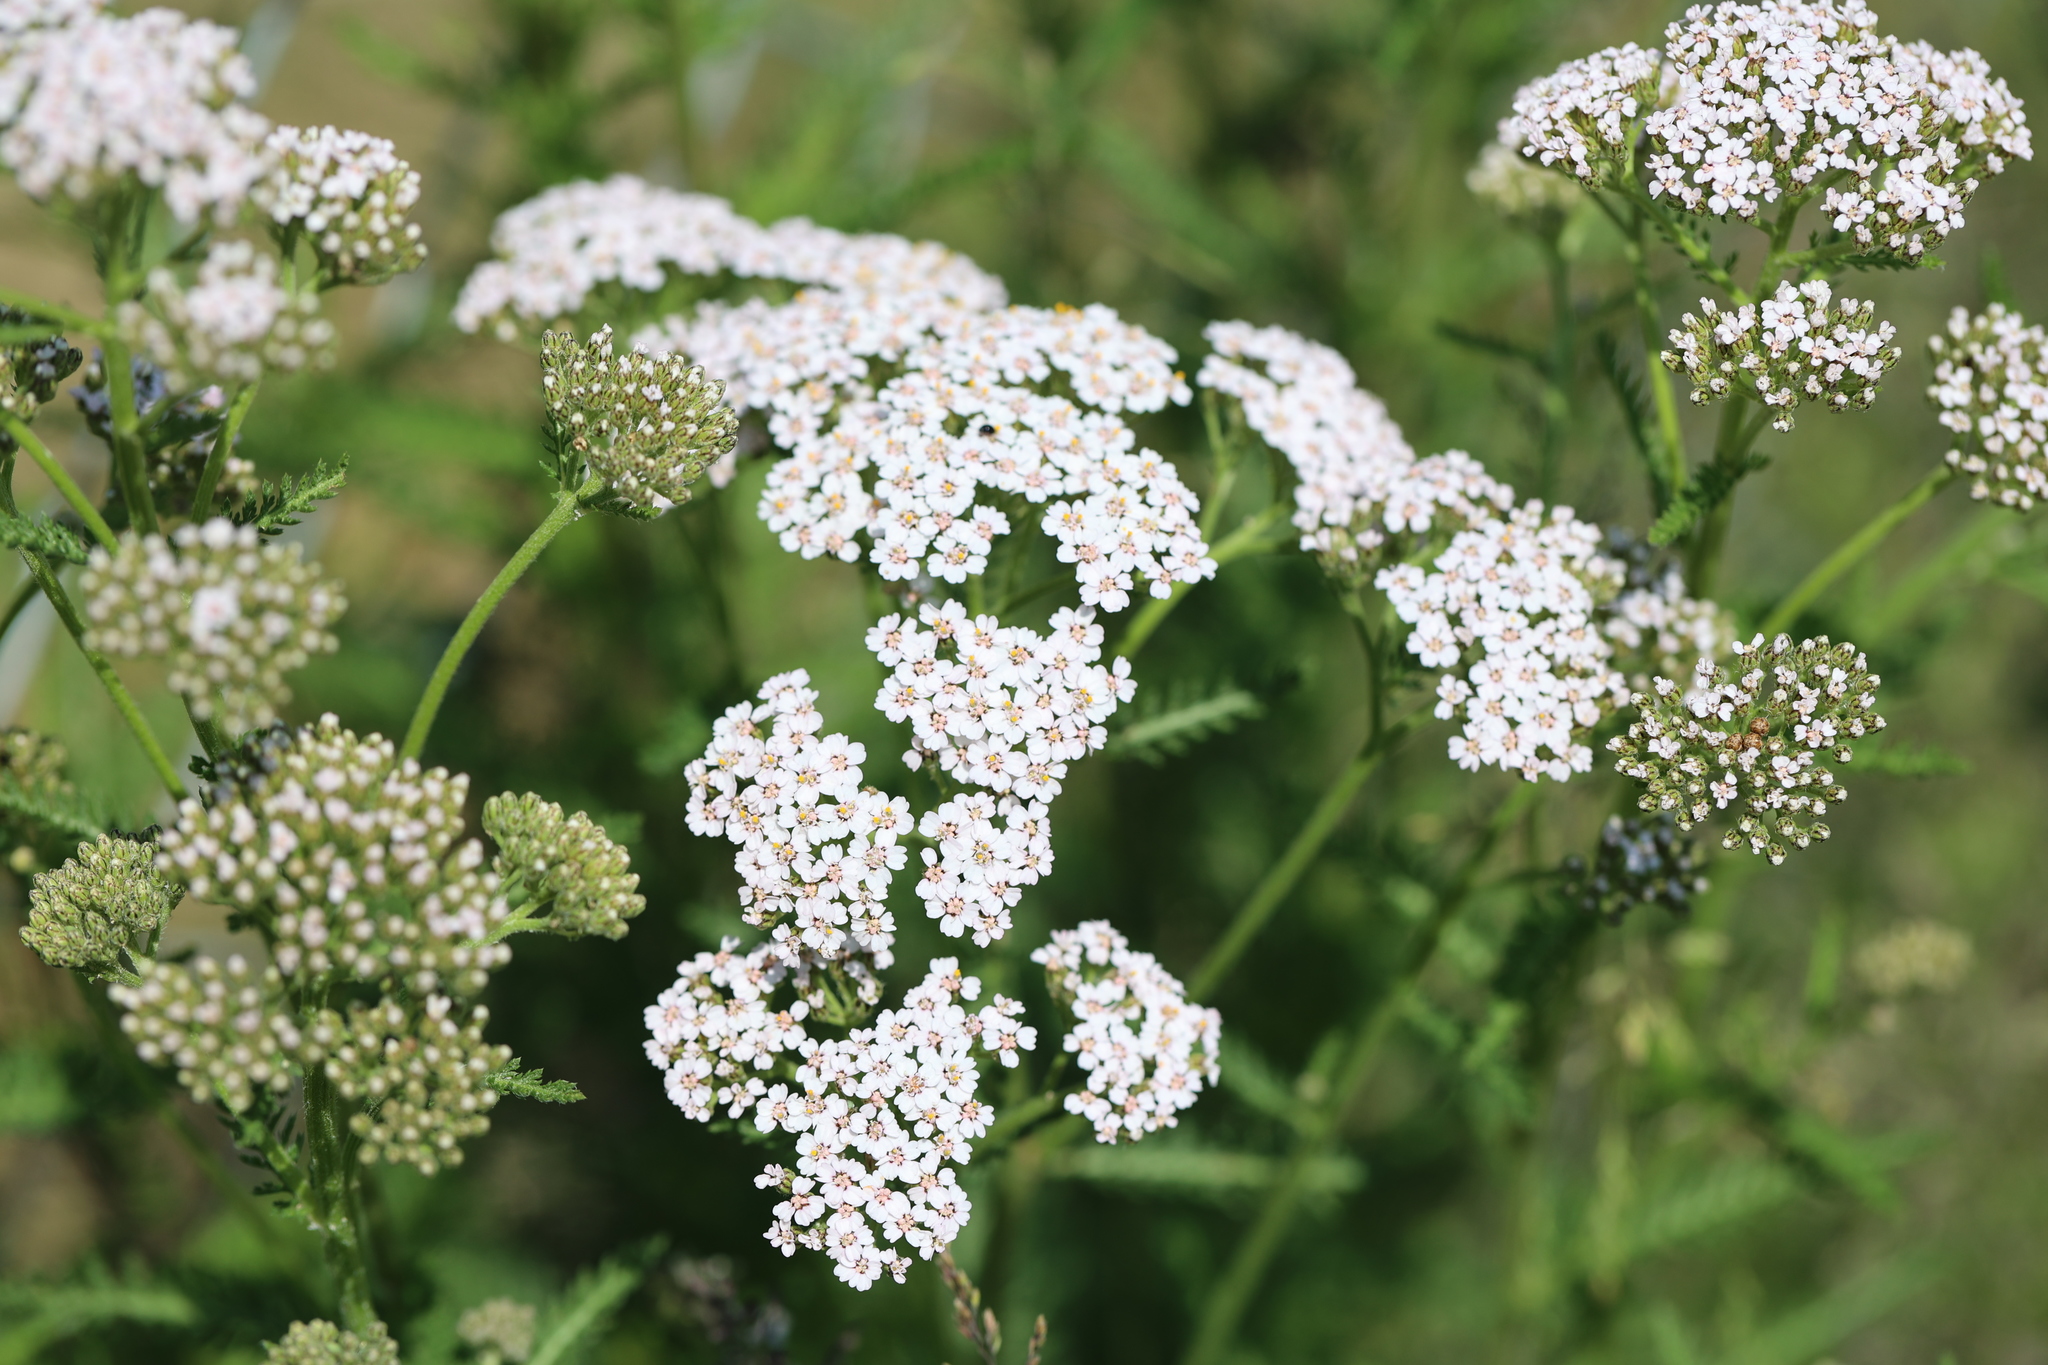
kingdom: Plantae
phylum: Tracheophyta
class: Magnoliopsida
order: Asterales
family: Asteraceae
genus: Achillea
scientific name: Achillea millefolium
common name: Yarrow
